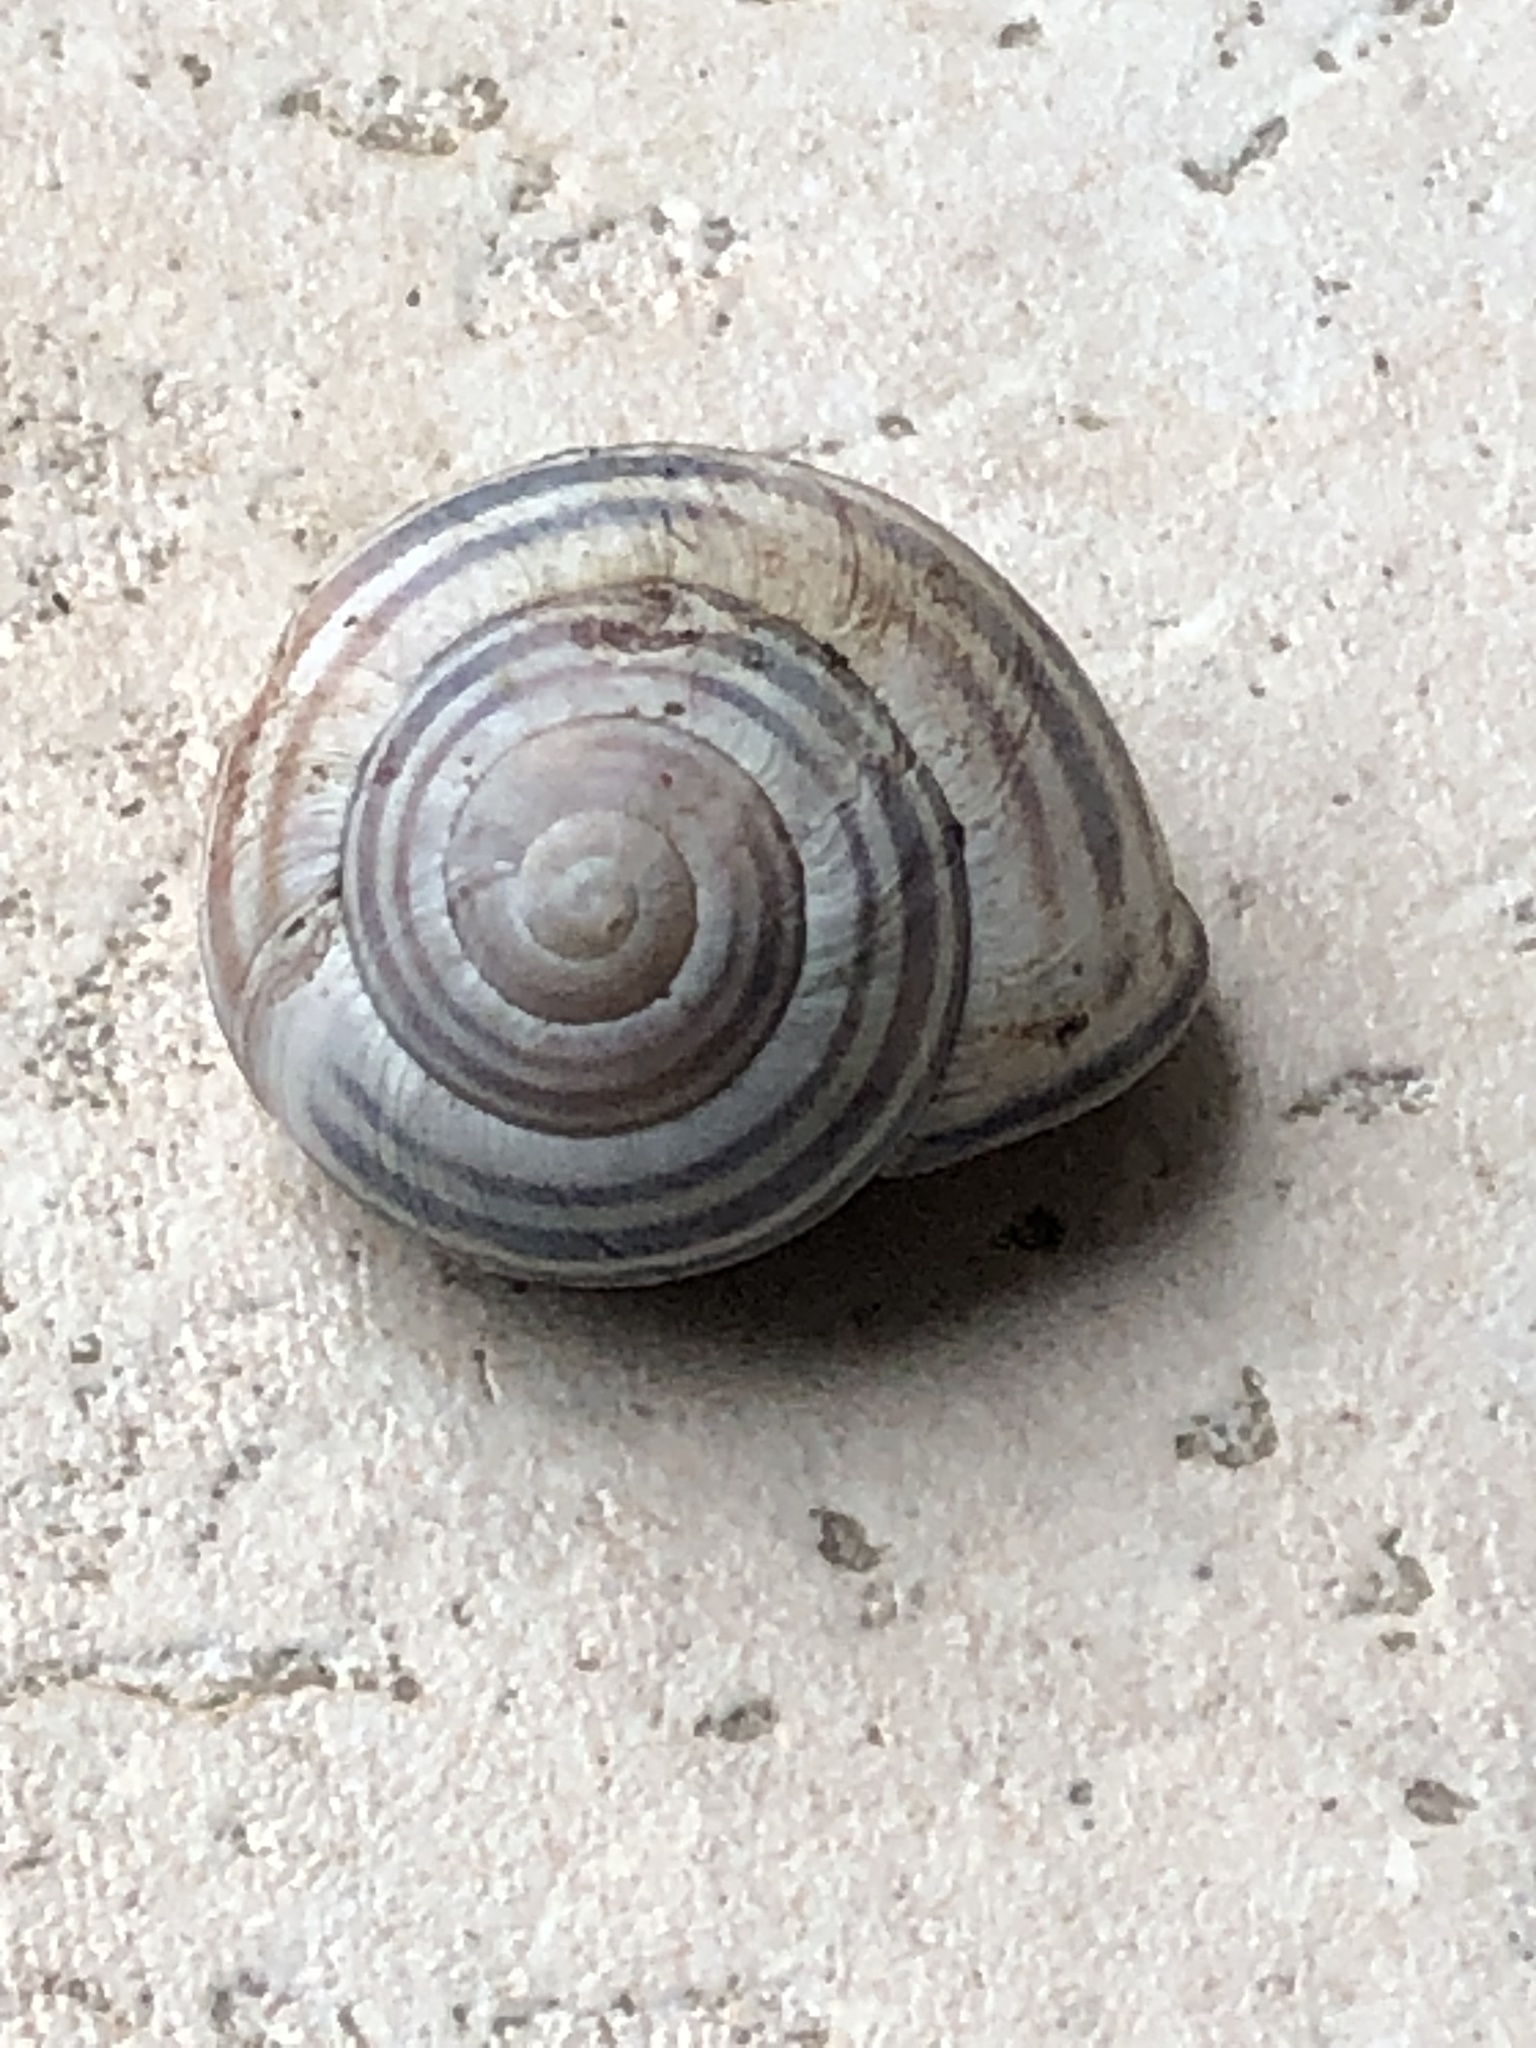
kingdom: Animalia
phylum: Mollusca
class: Gastropoda
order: Stylommatophora
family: Helicidae
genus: Cepaea
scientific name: Cepaea nemoralis
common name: Grovesnail
